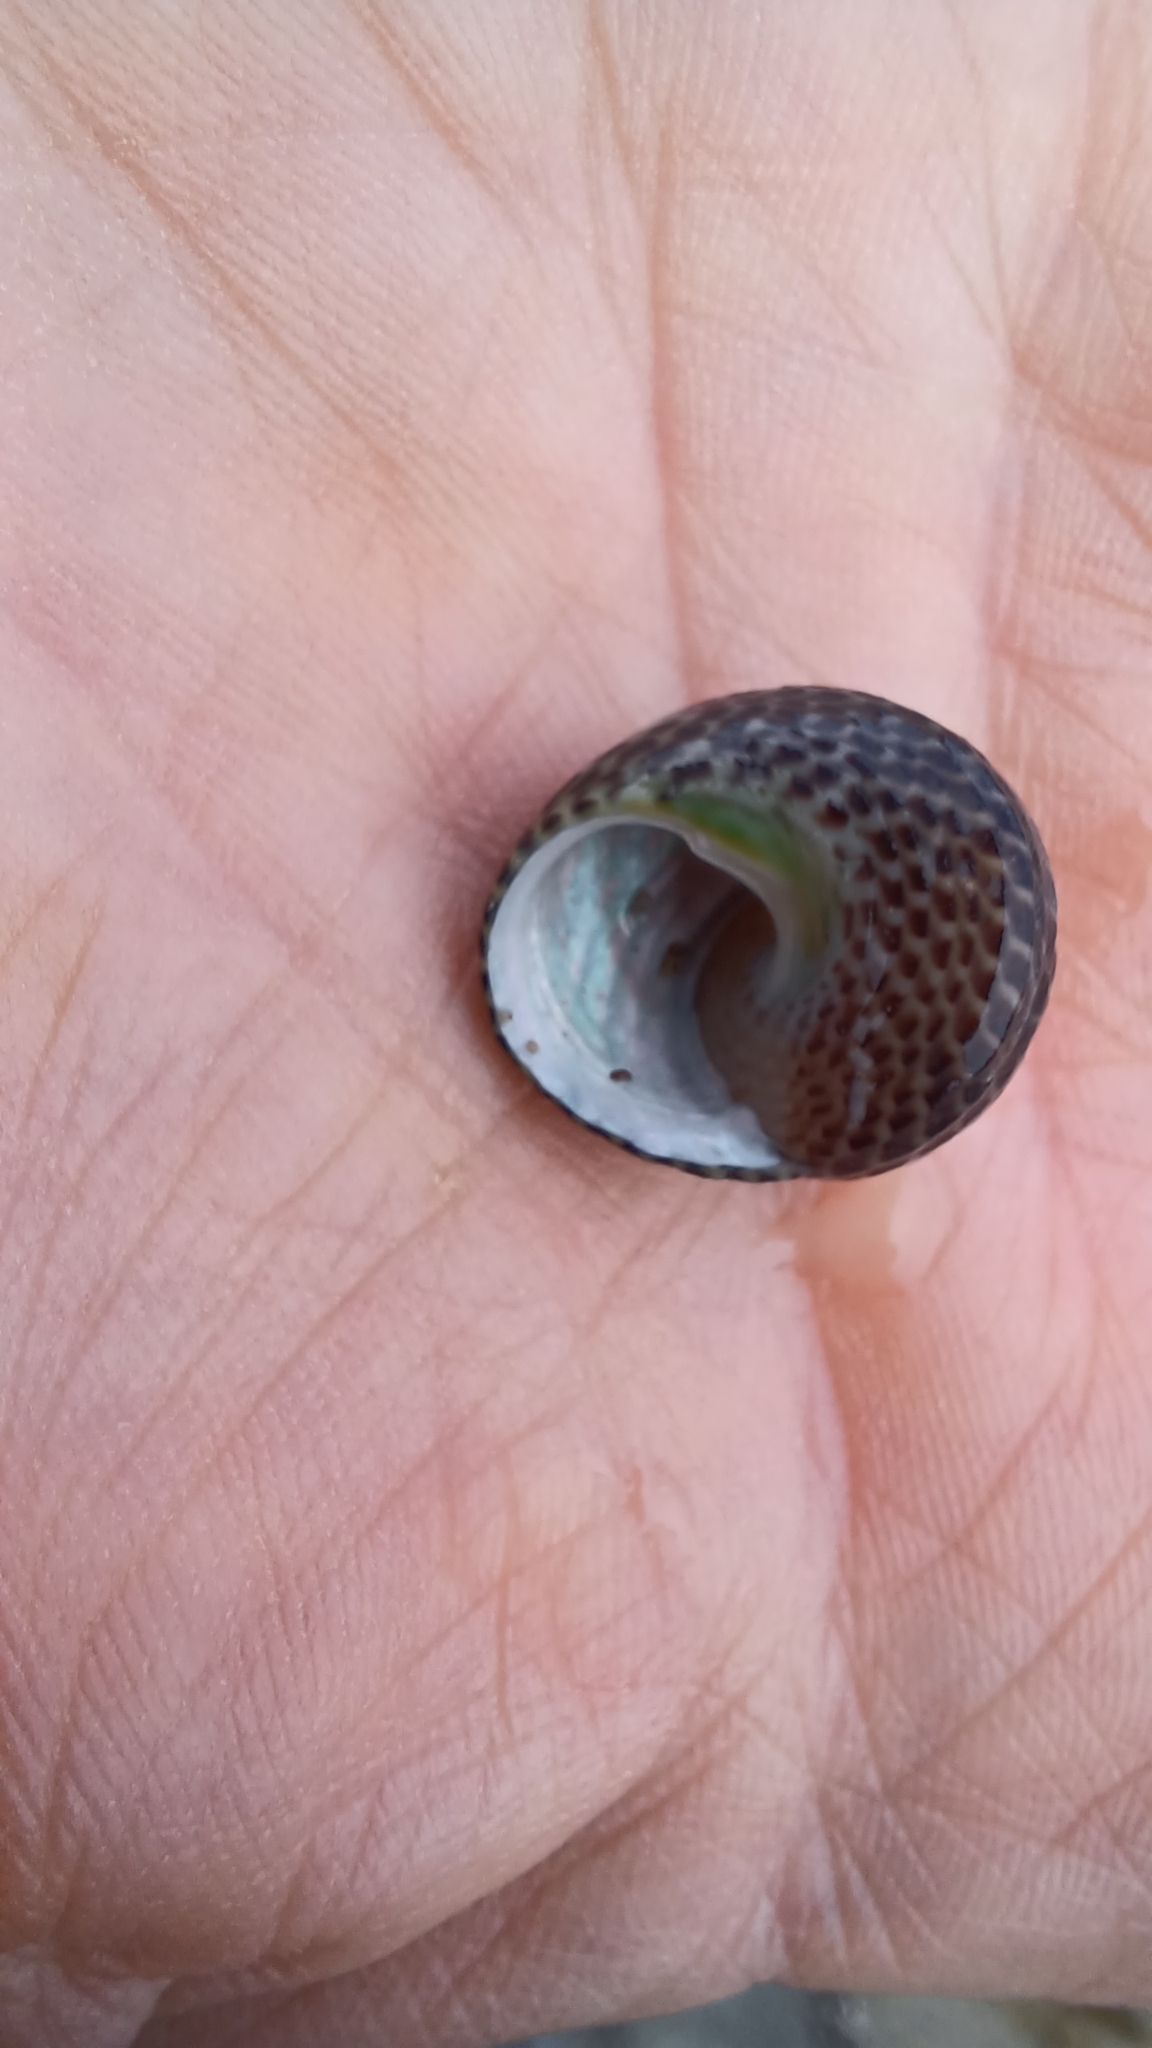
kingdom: Animalia
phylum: Mollusca
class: Gastropoda
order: Trochida
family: Trochidae
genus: Chlorodiloma
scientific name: Chlorodiloma adelaidae
